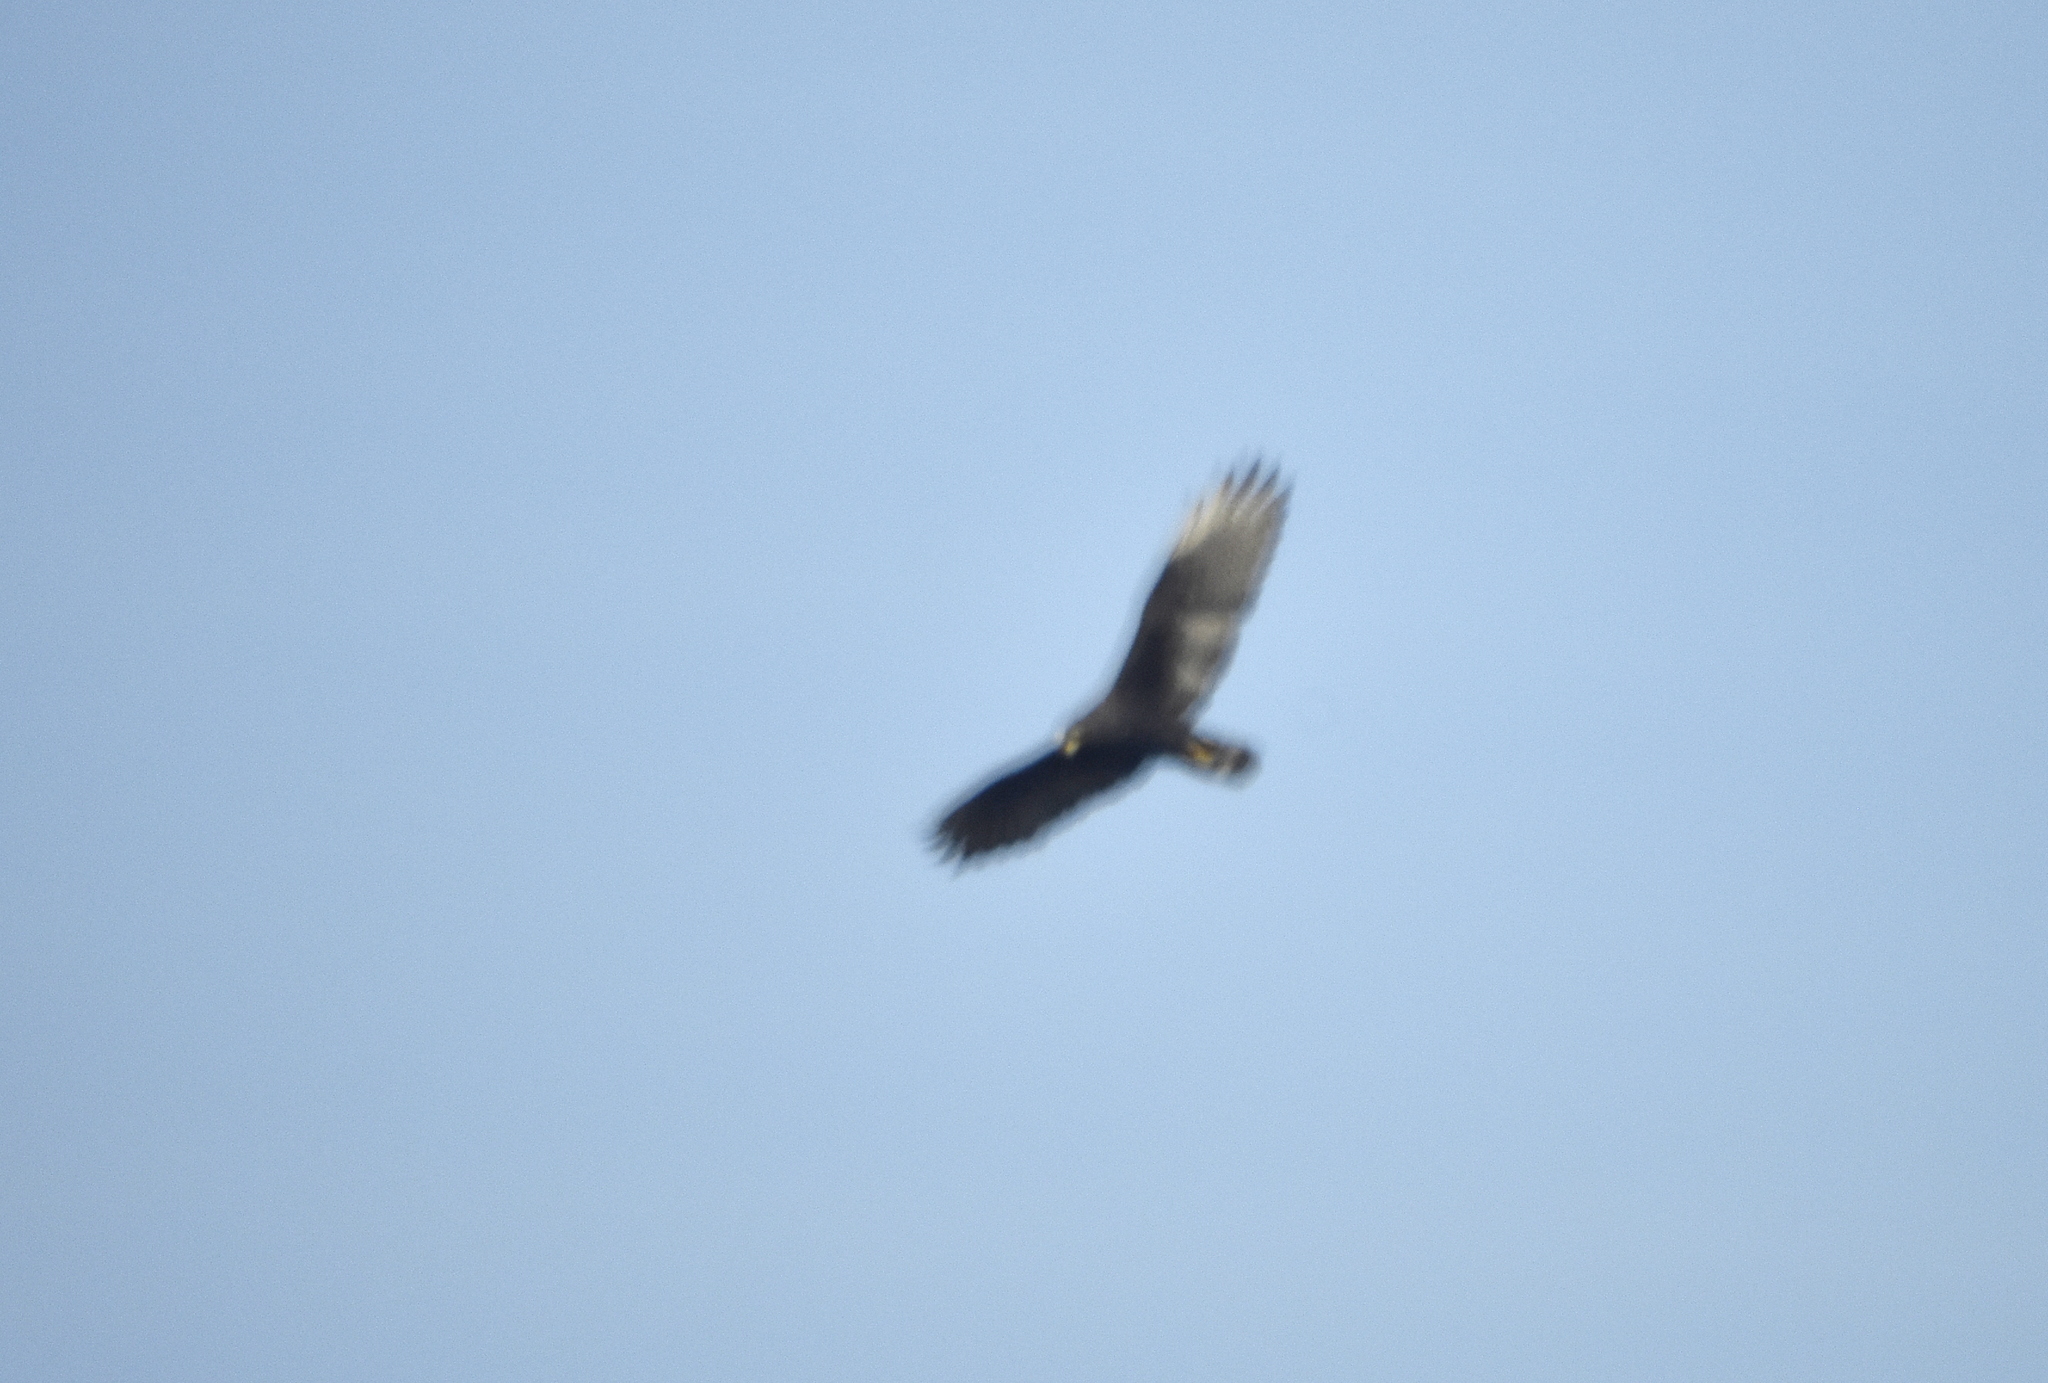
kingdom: Animalia
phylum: Chordata
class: Aves
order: Accipitriformes
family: Accipitridae
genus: Buteo
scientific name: Buteo albonotatus
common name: Zone-tailed hawk
